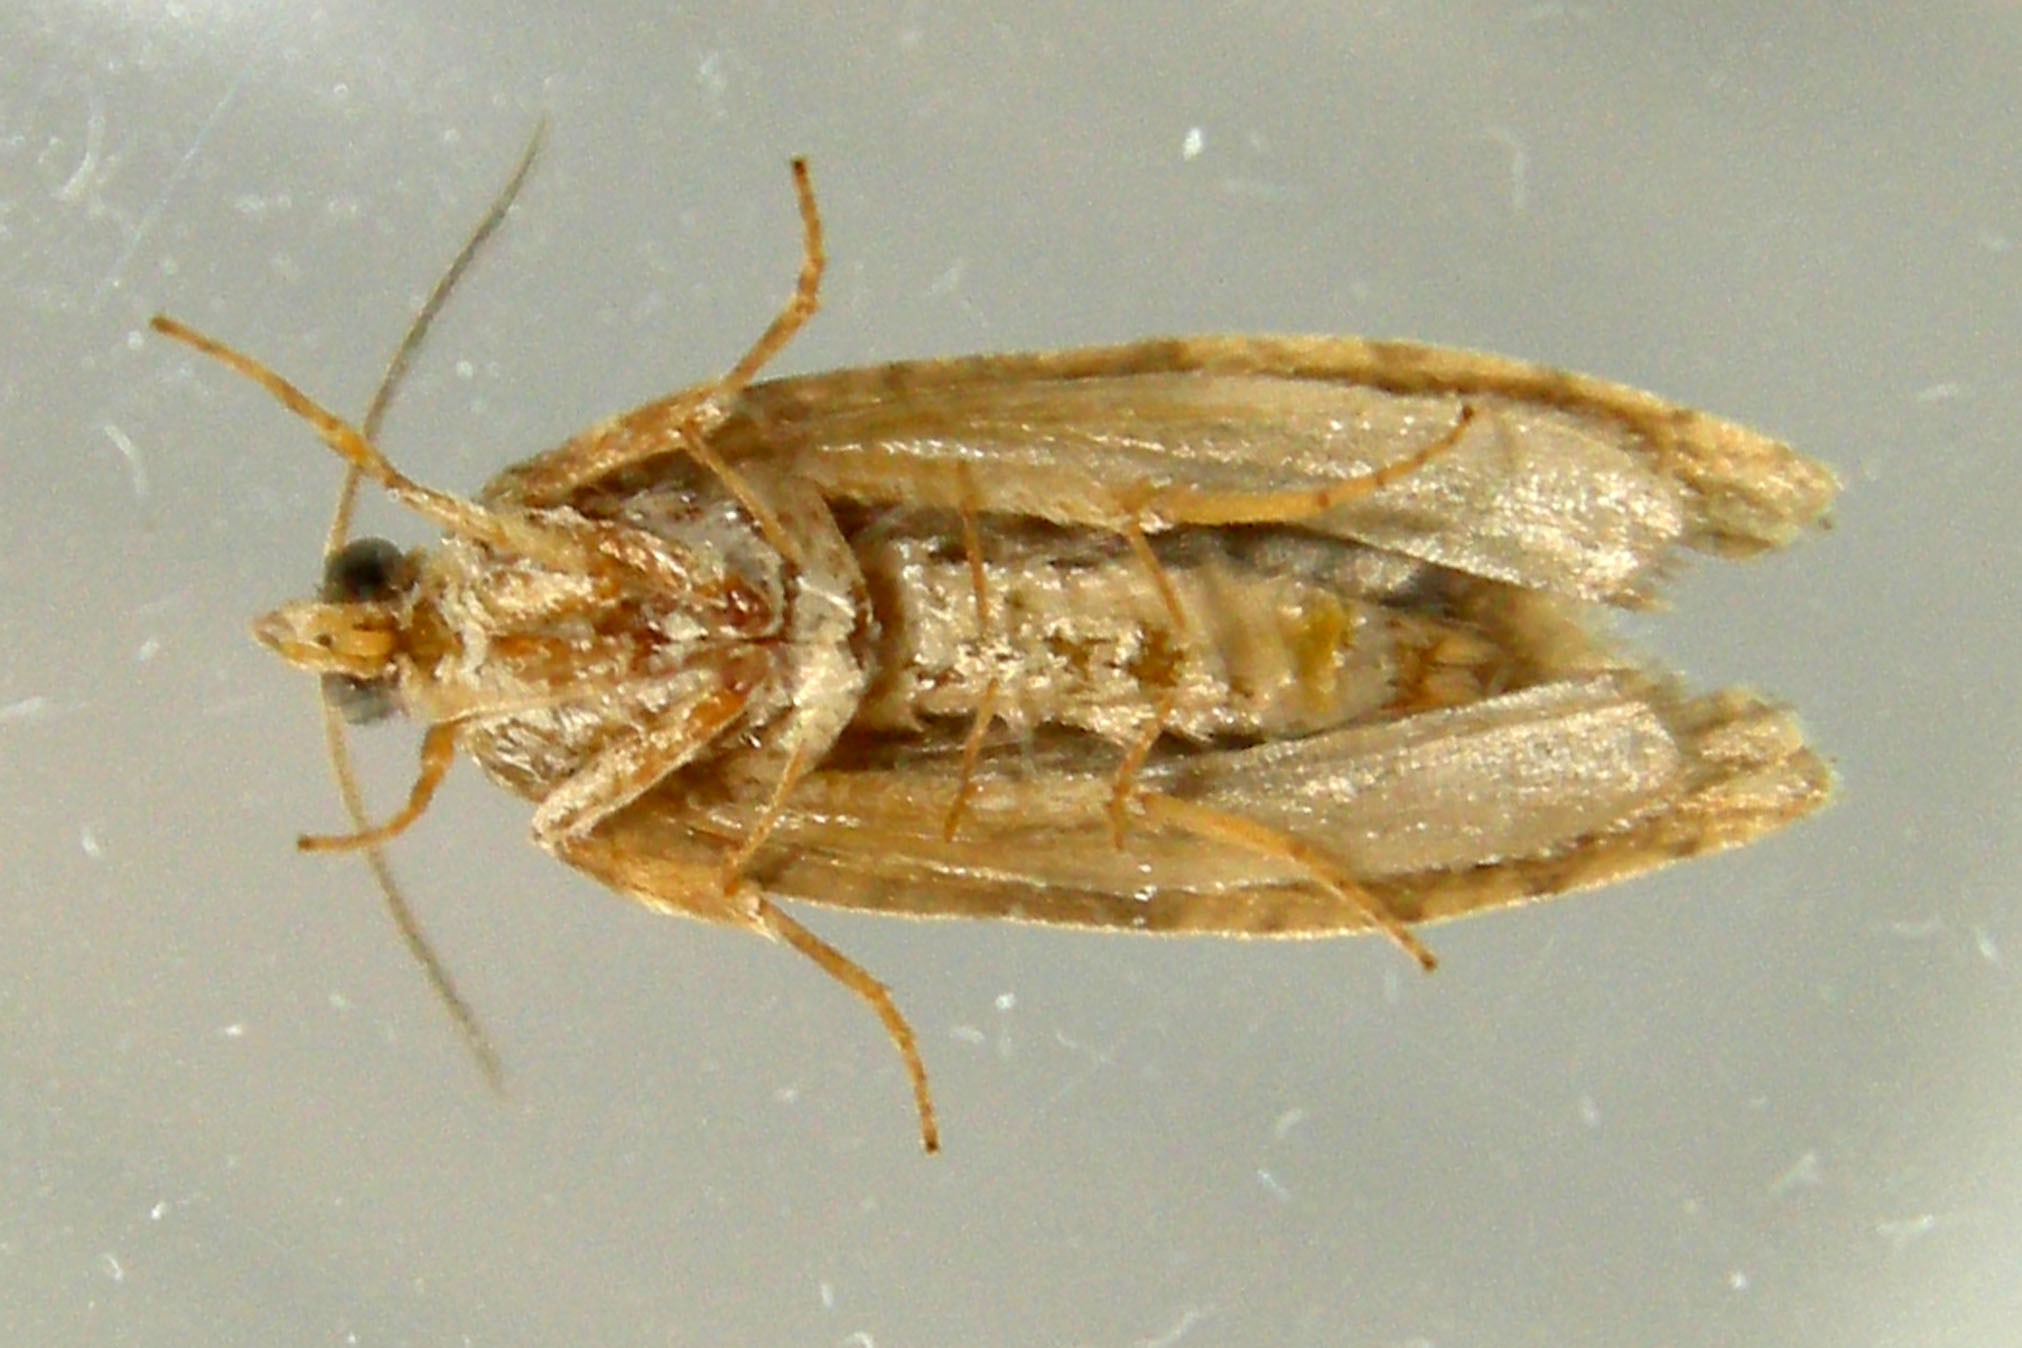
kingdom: Animalia
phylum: Arthropoda
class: Insecta
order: Lepidoptera
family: Tortricidae
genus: Hedya
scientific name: Hedya nubiferana
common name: Marbled orchard tortrix
